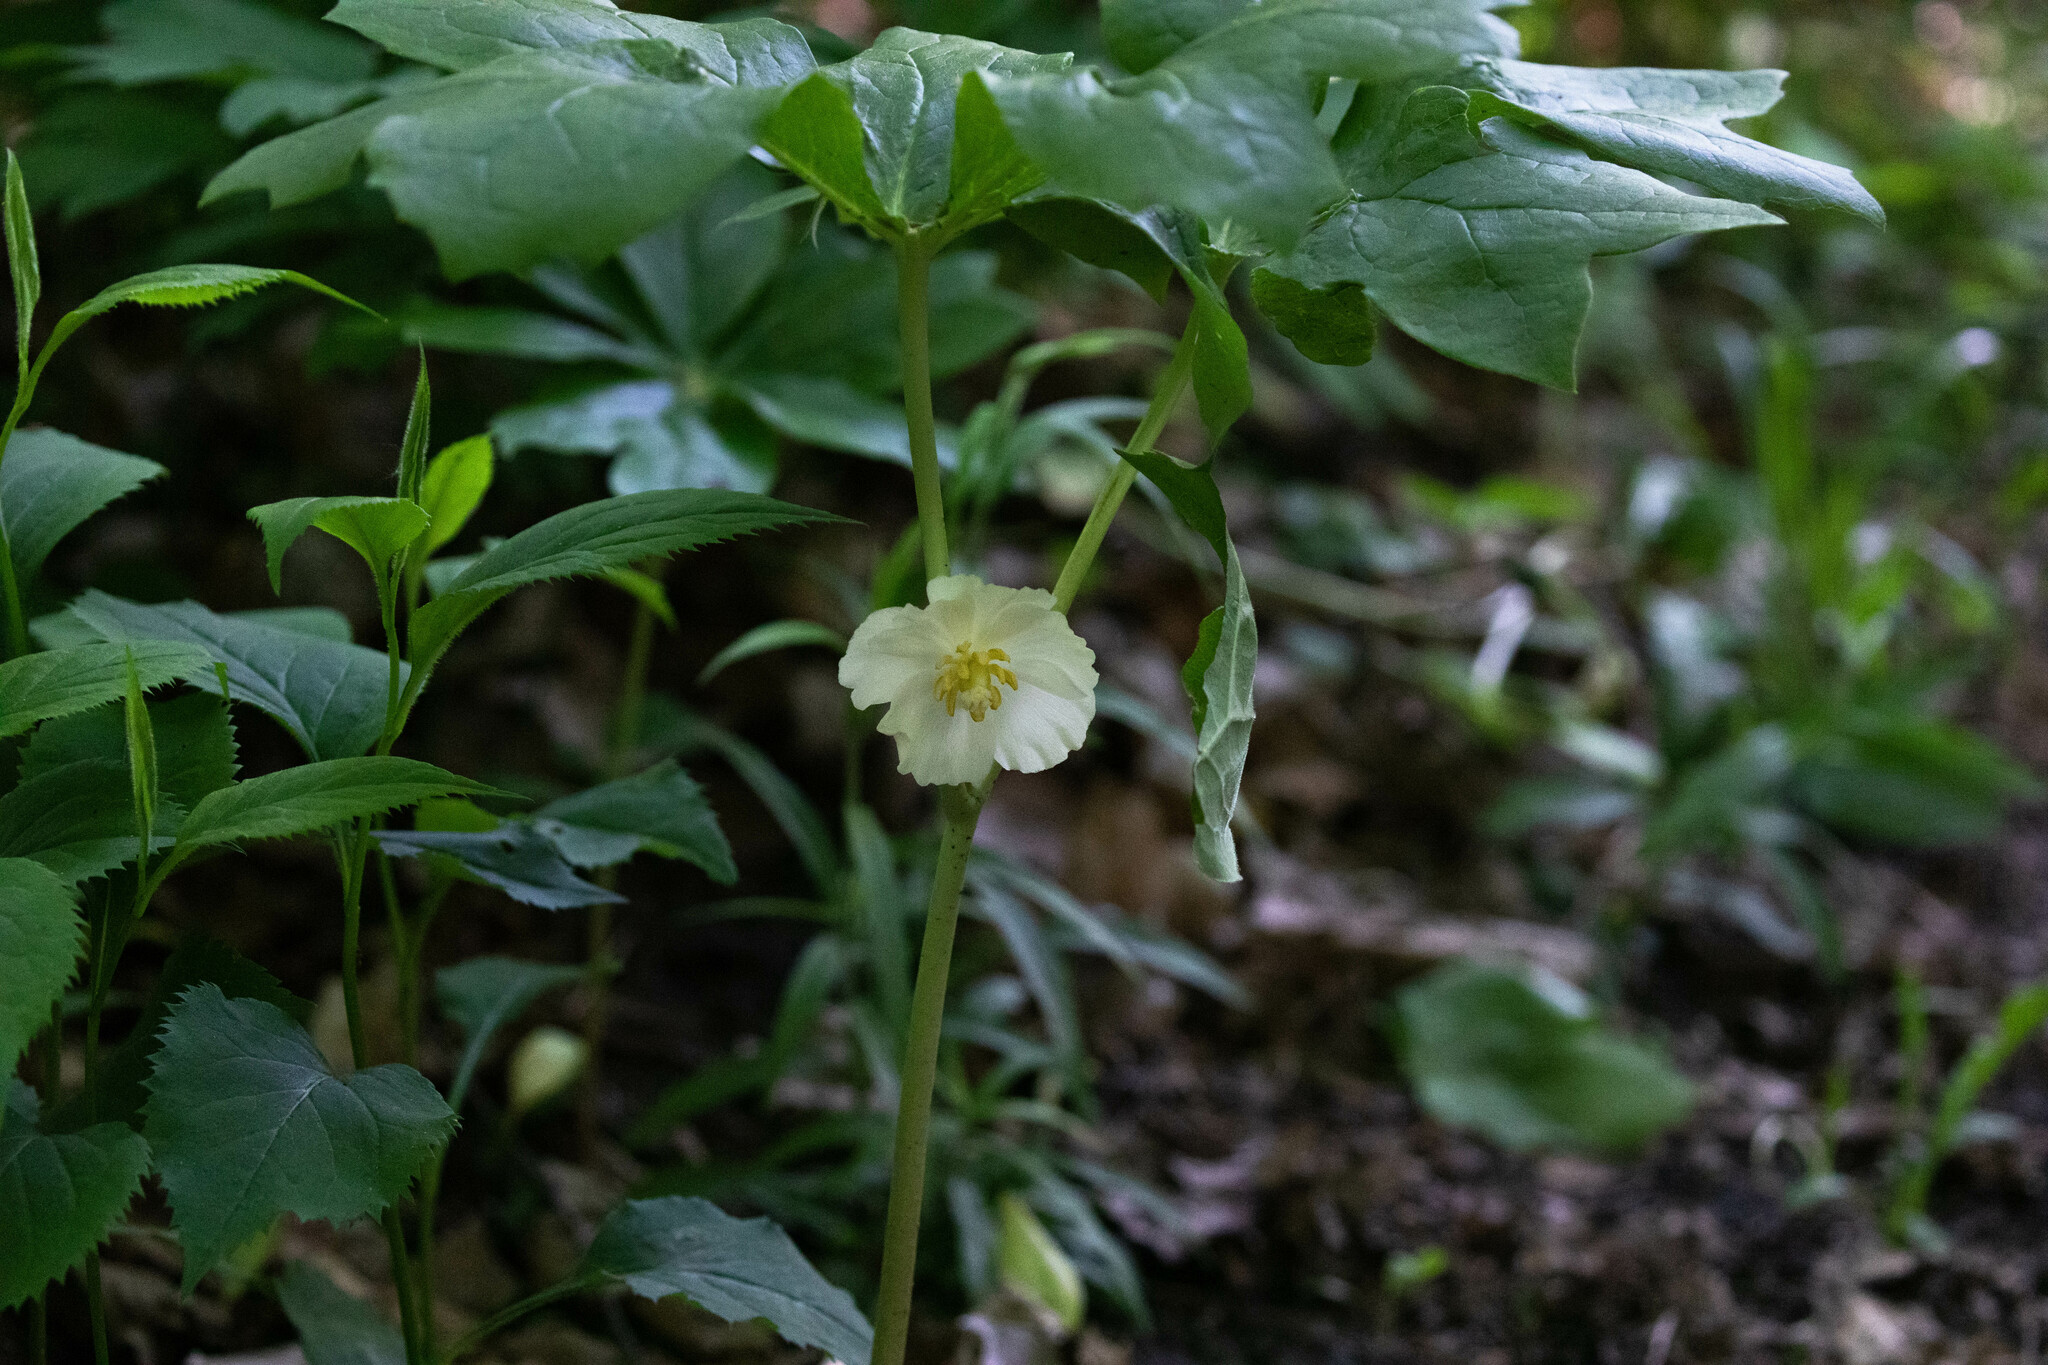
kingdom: Plantae
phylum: Tracheophyta
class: Magnoliopsida
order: Ranunculales
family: Berberidaceae
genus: Podophyllum
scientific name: Podophyllum peltatum
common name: Wild mandrake
